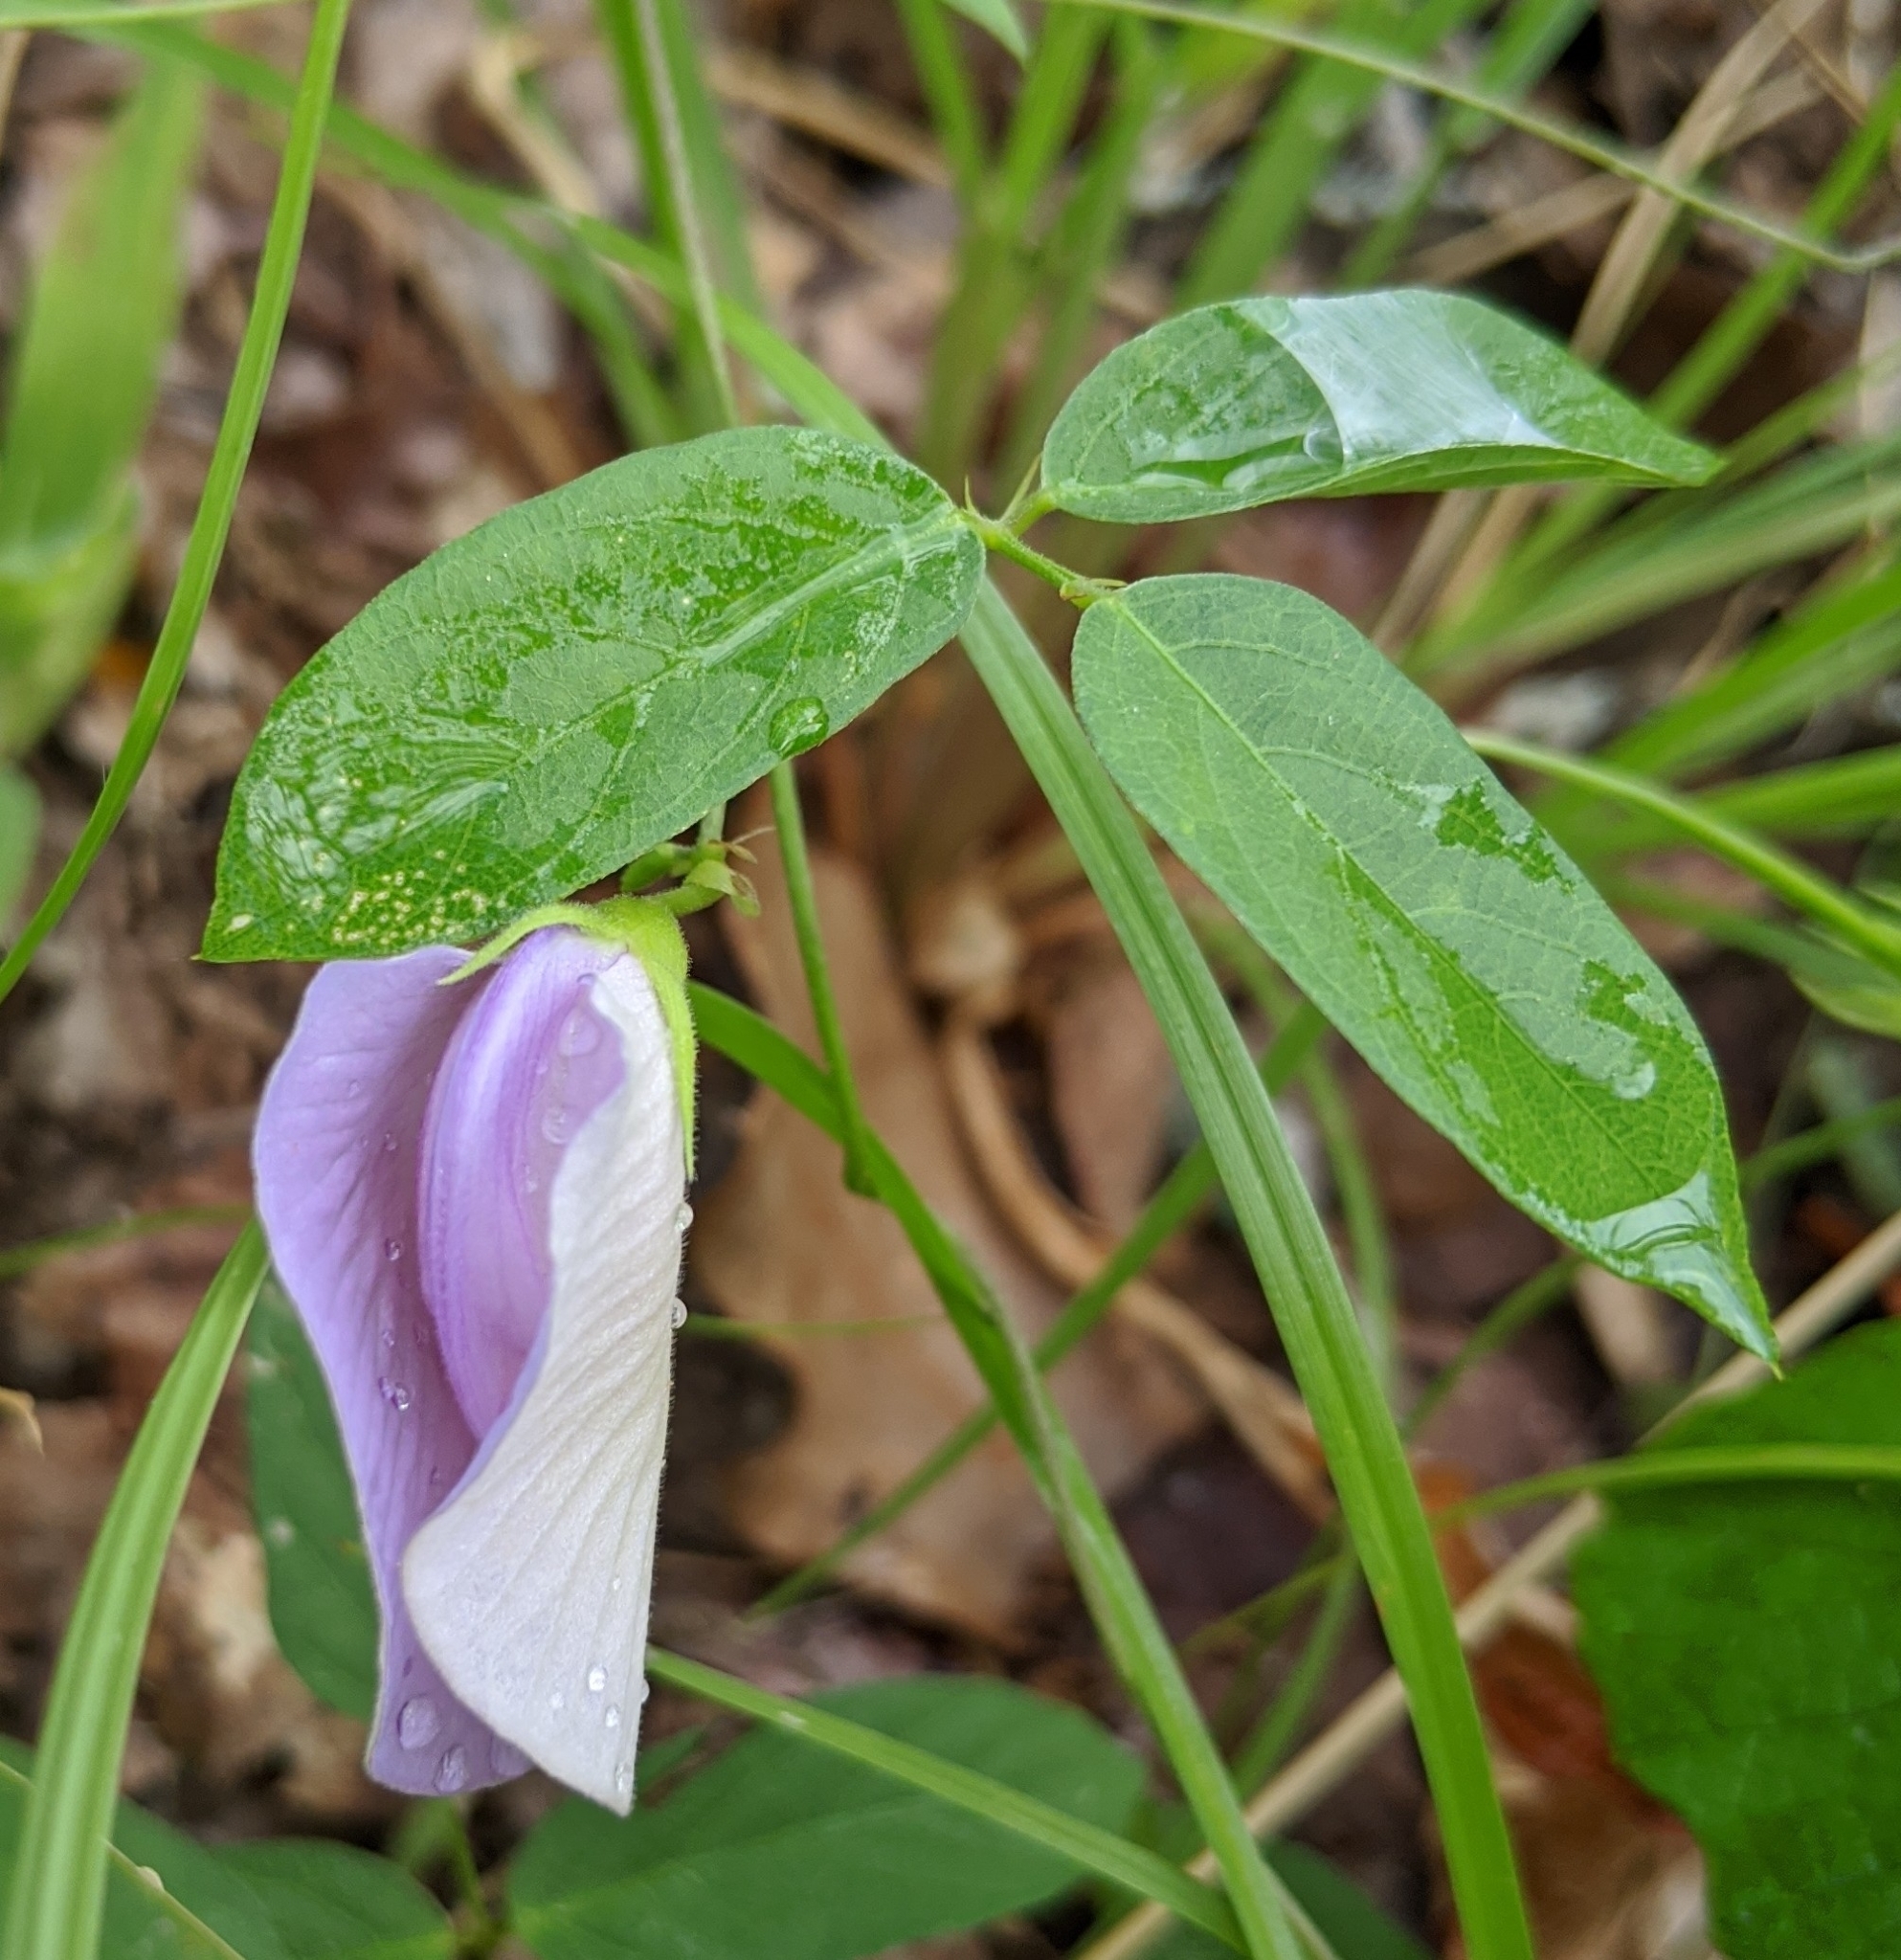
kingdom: Plantae
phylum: Tracheophyta
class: Magnoliopsida
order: Fabales
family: Fabaceae
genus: Centrosema
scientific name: Centrosema virginianum
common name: Butterfly-pea
